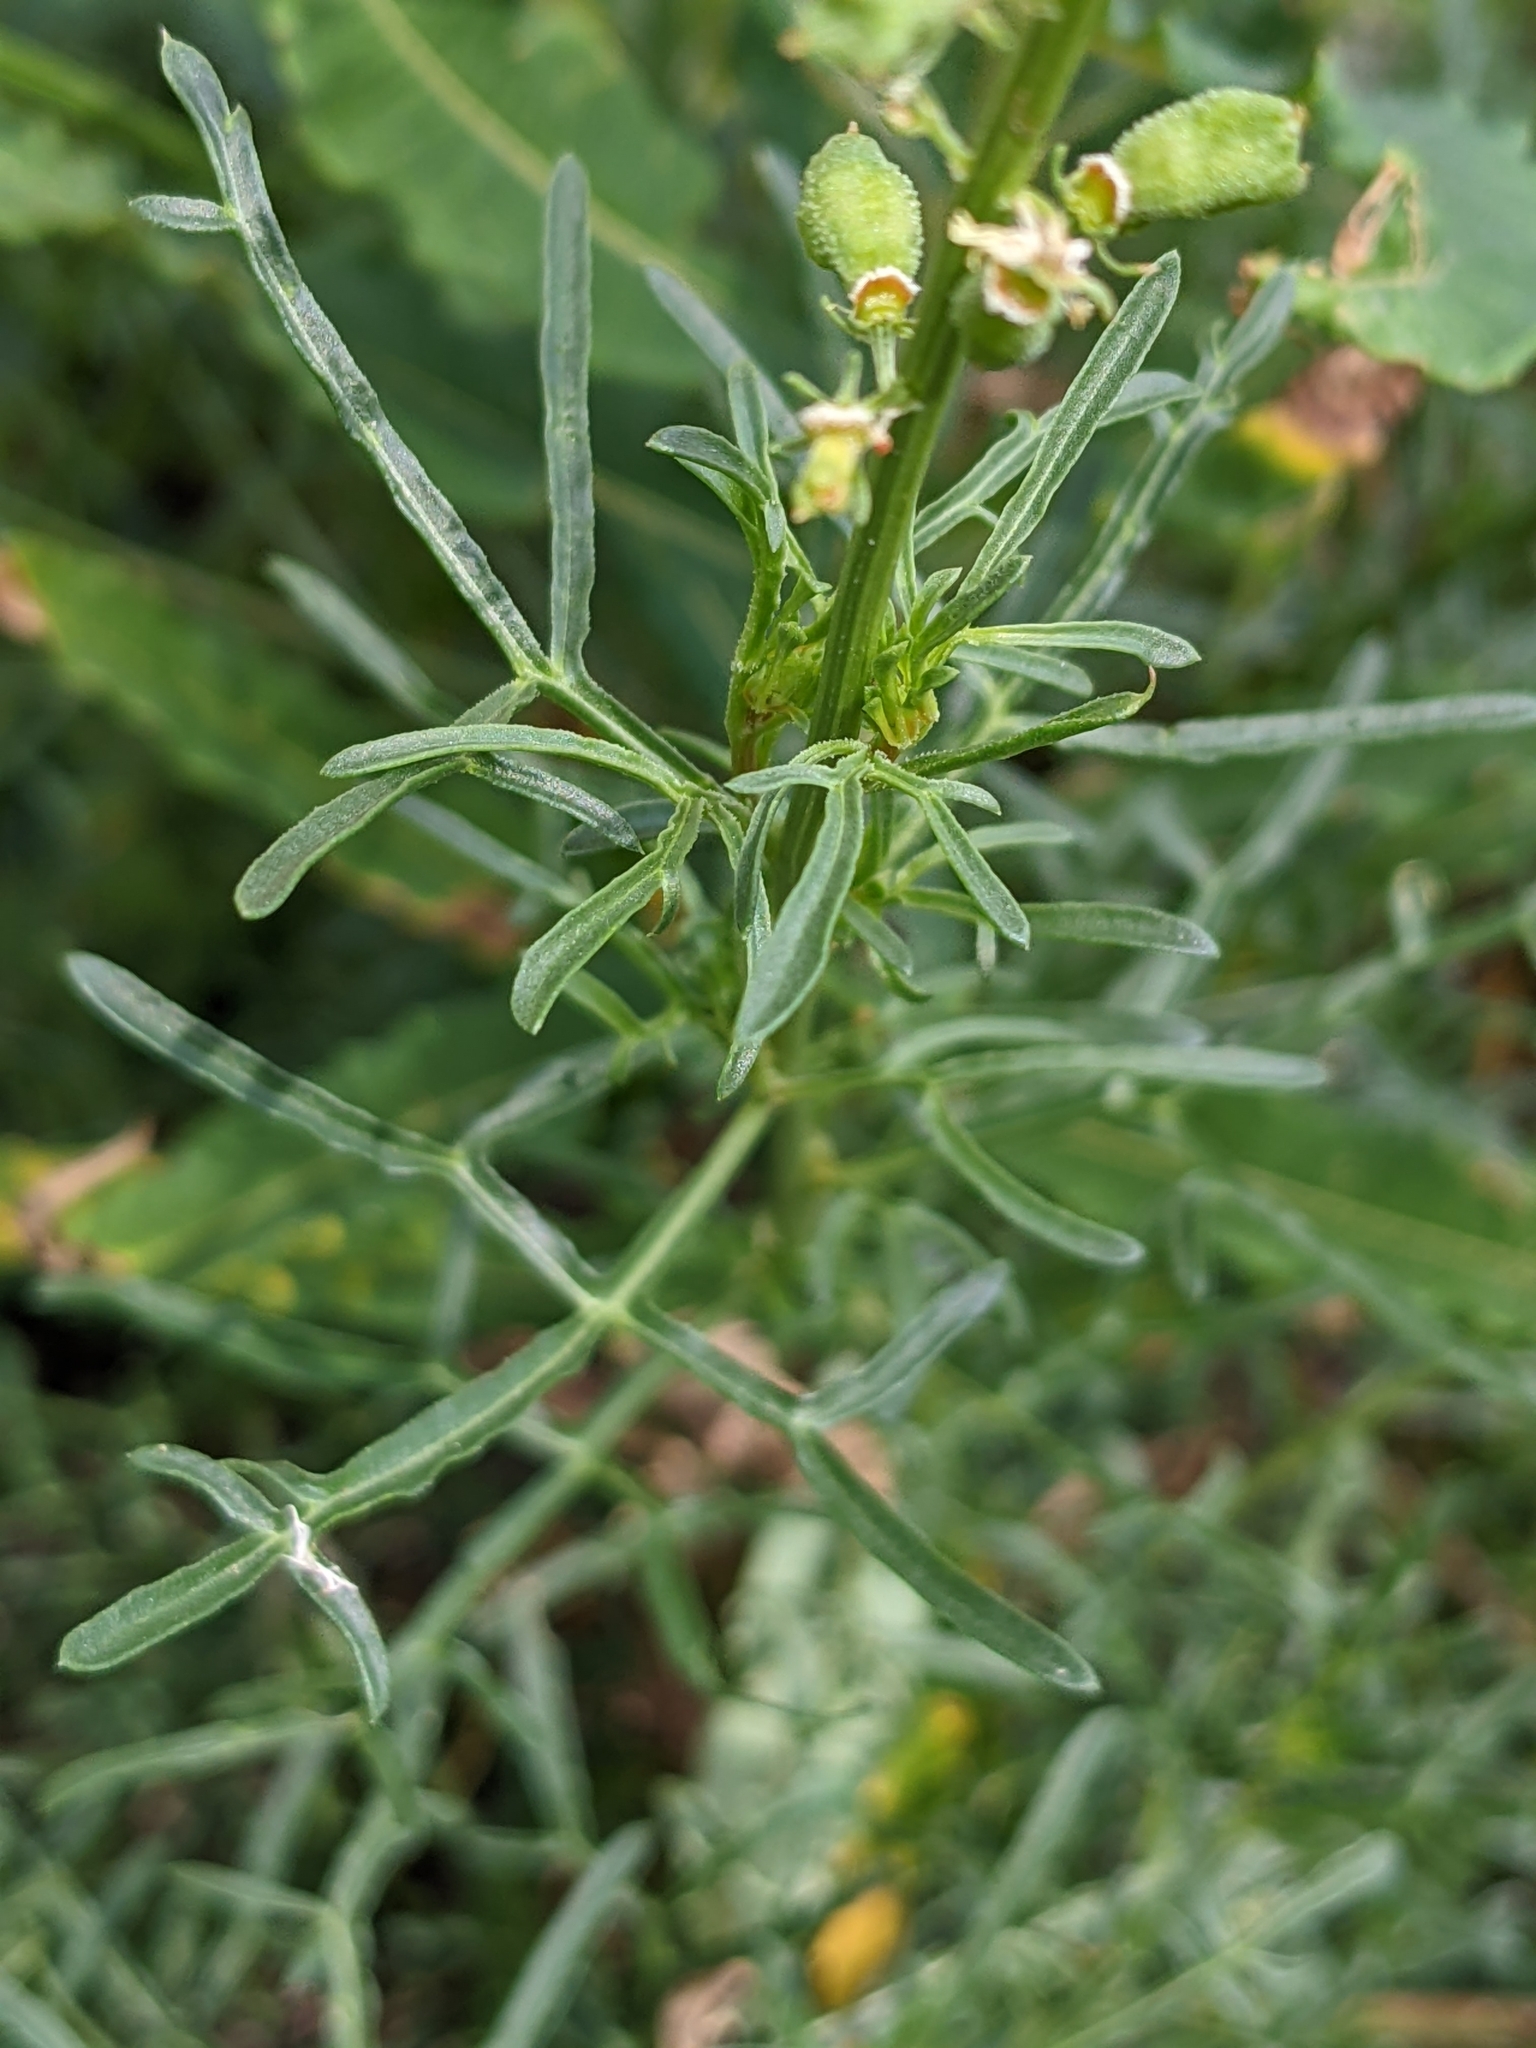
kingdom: Plantae
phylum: Tracheophyta
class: Magnoliopsida
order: Brassicales
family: Resedaceae
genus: Reseda
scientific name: Reseda lutea
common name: Wild mignonette
